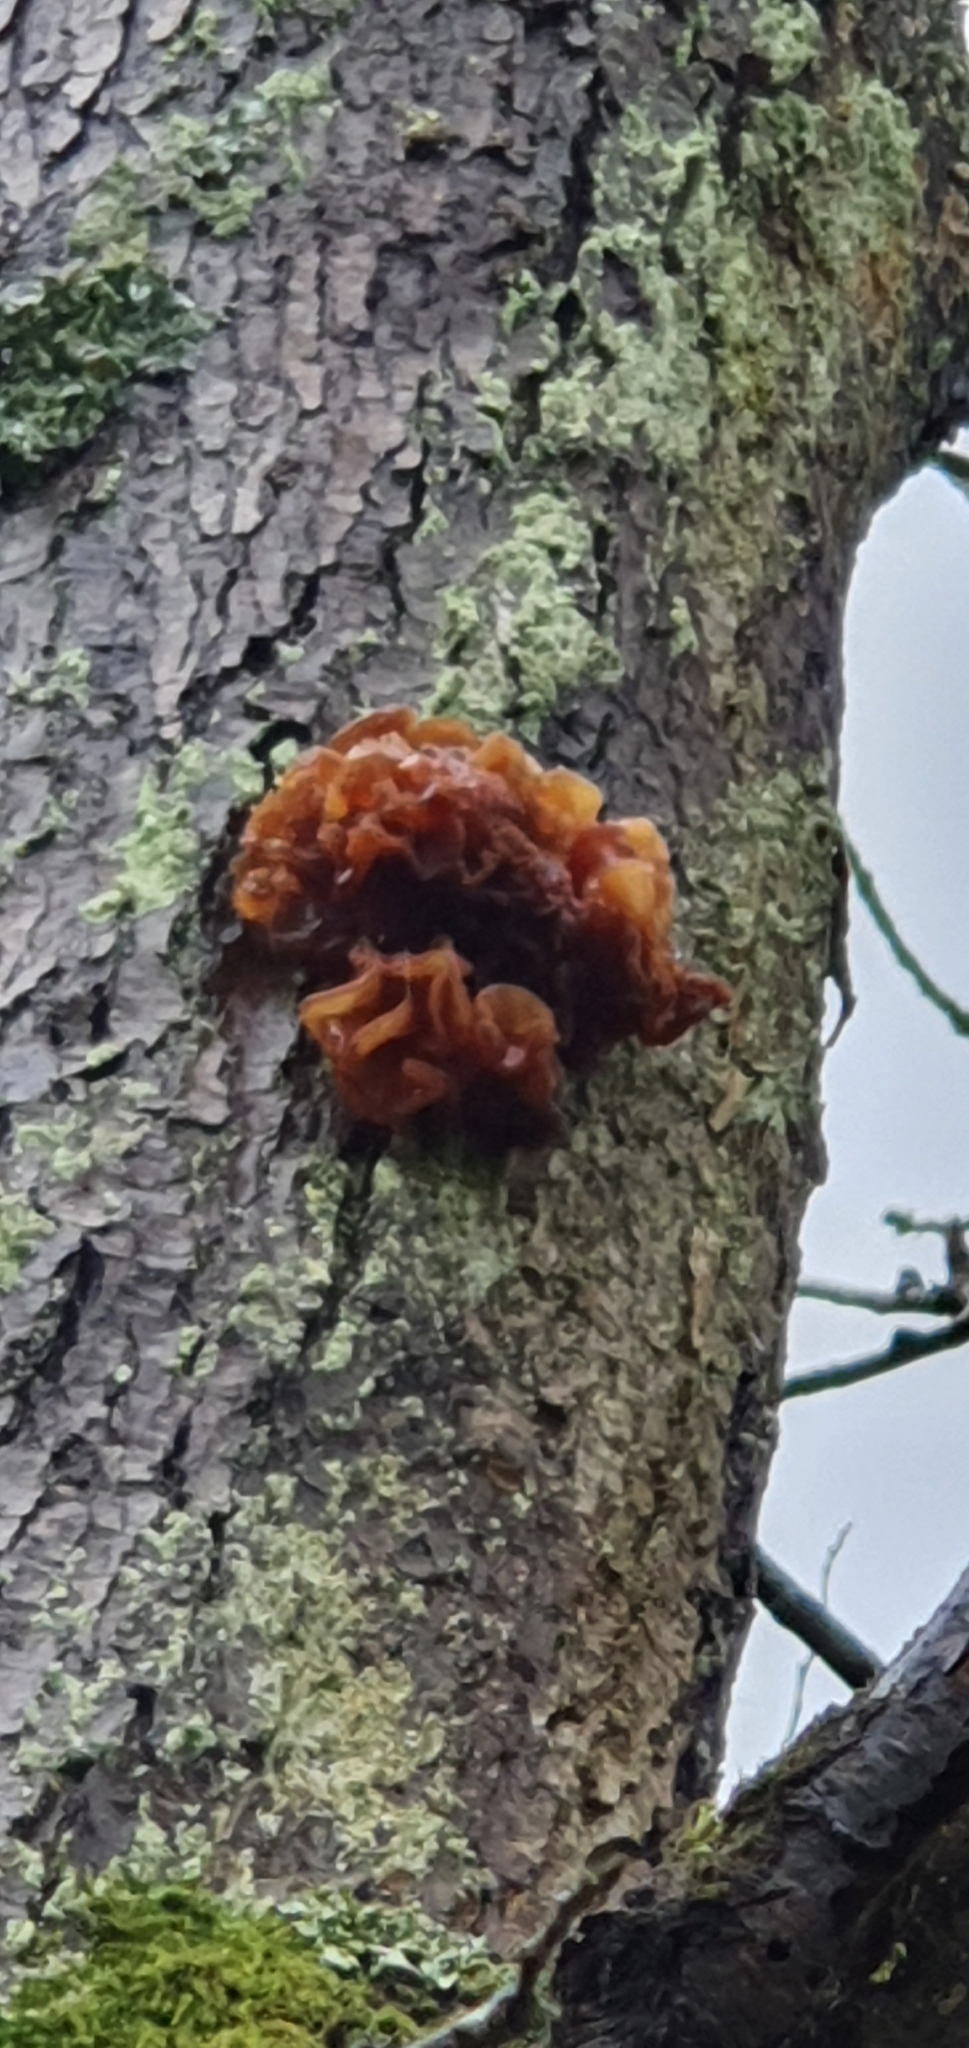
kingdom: Fungi
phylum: Basidiomycota
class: Tremellomycetes
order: Tremellales
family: Tremellaceae
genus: Phaeotremella
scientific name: Phaeotremella frondosa
